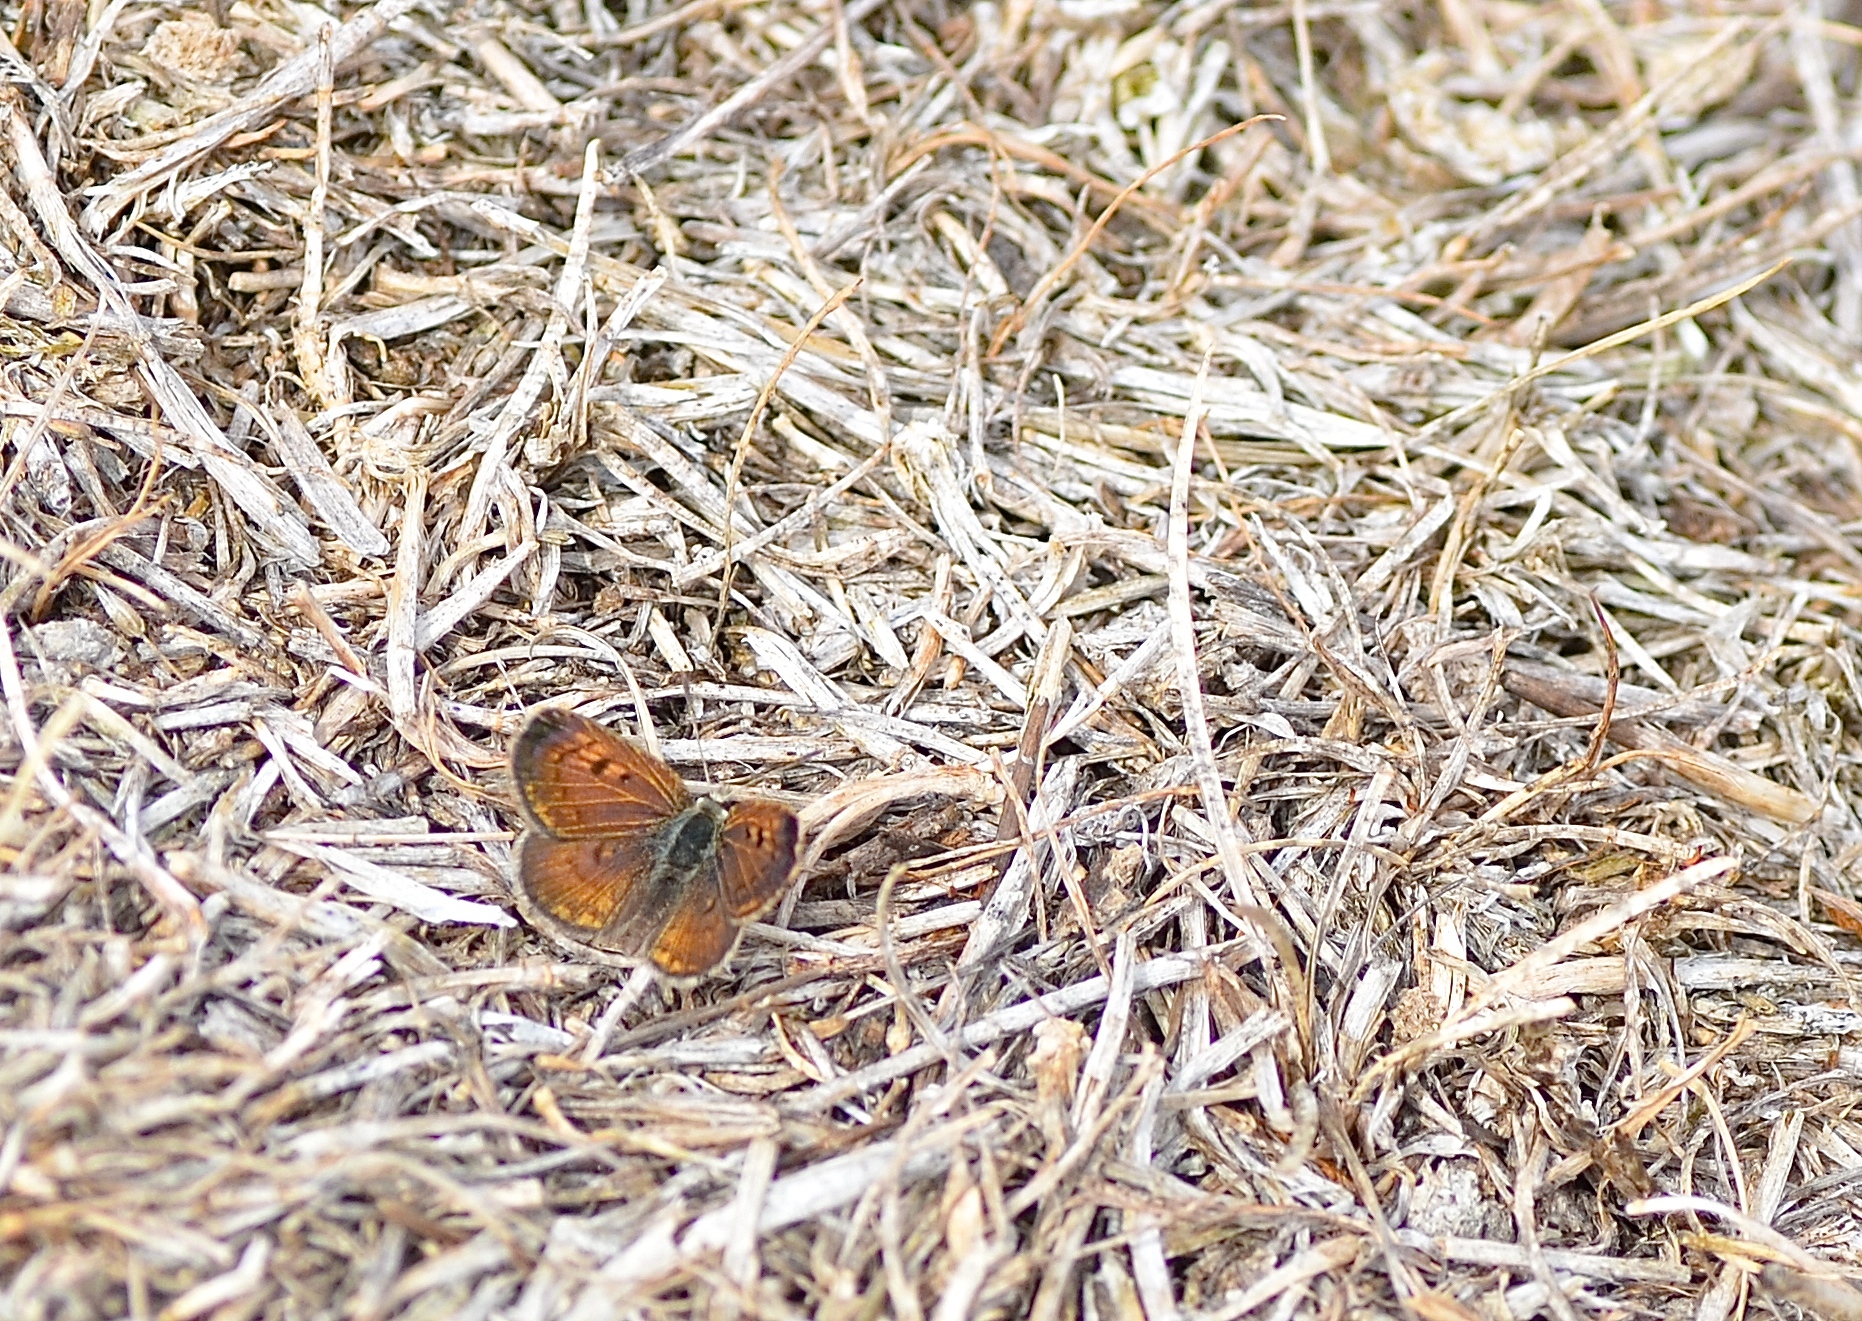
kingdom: Animalia
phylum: Arthropoda
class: Insecta
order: Lepidoptera
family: Lycaenidae
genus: Lycaena
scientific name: Lycaena boldenarum
